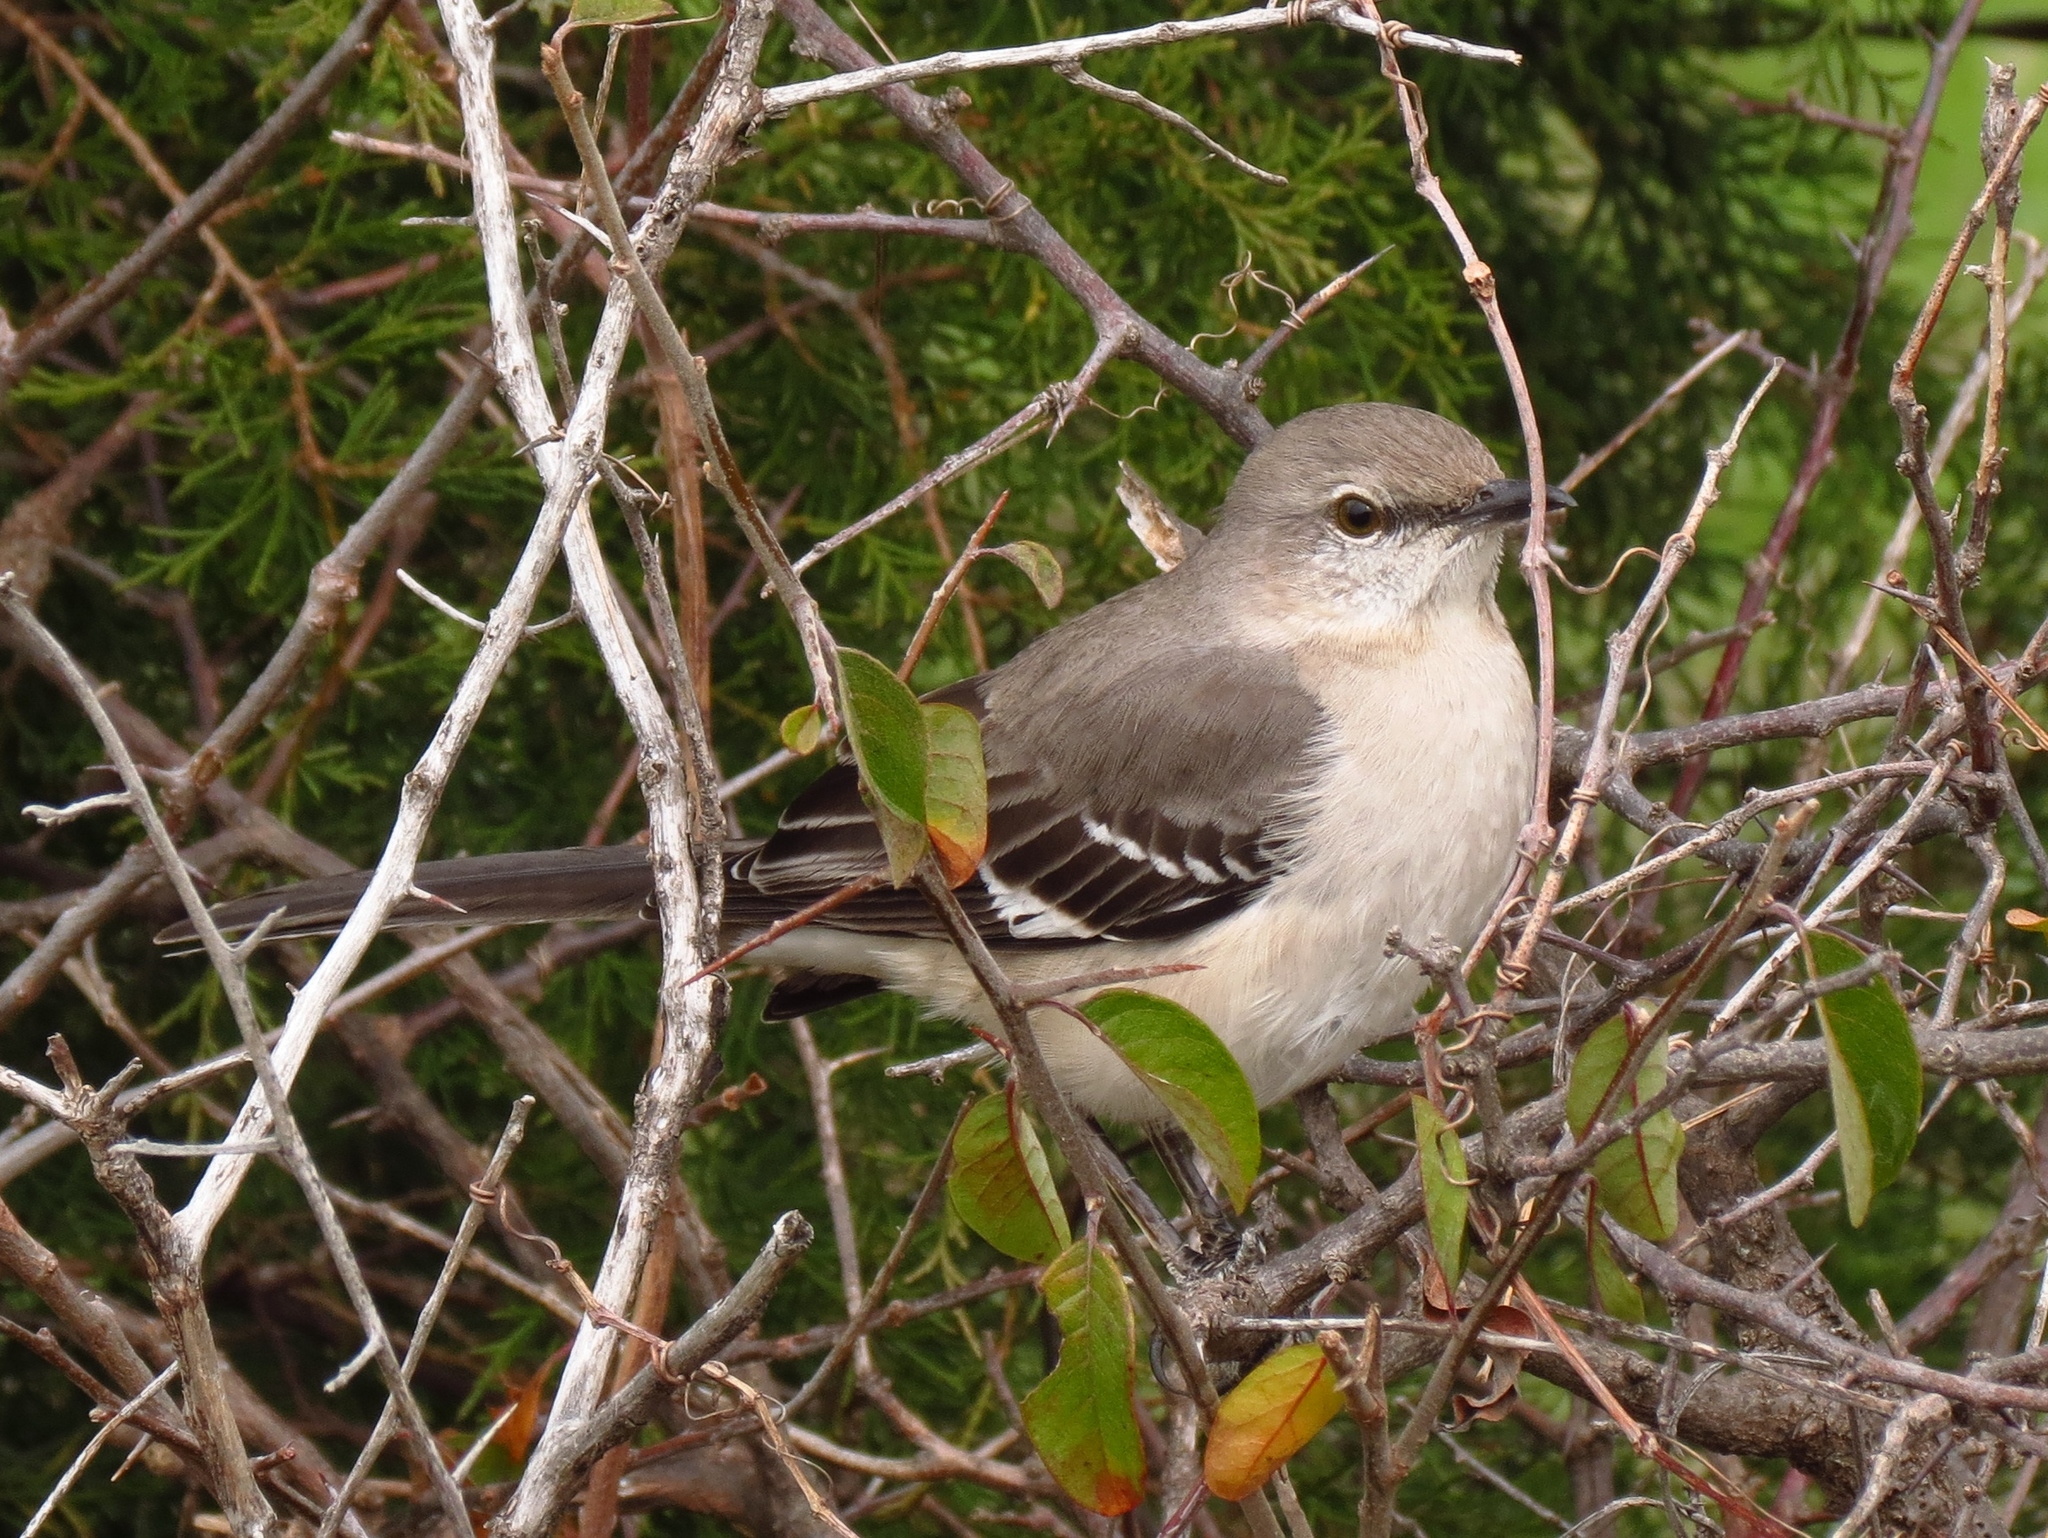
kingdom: Animalia
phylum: Chordata
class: Aves
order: Passeriformes
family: Mimidae
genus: Mimus
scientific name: Mimus polyglottos
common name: Northern mockingbird
